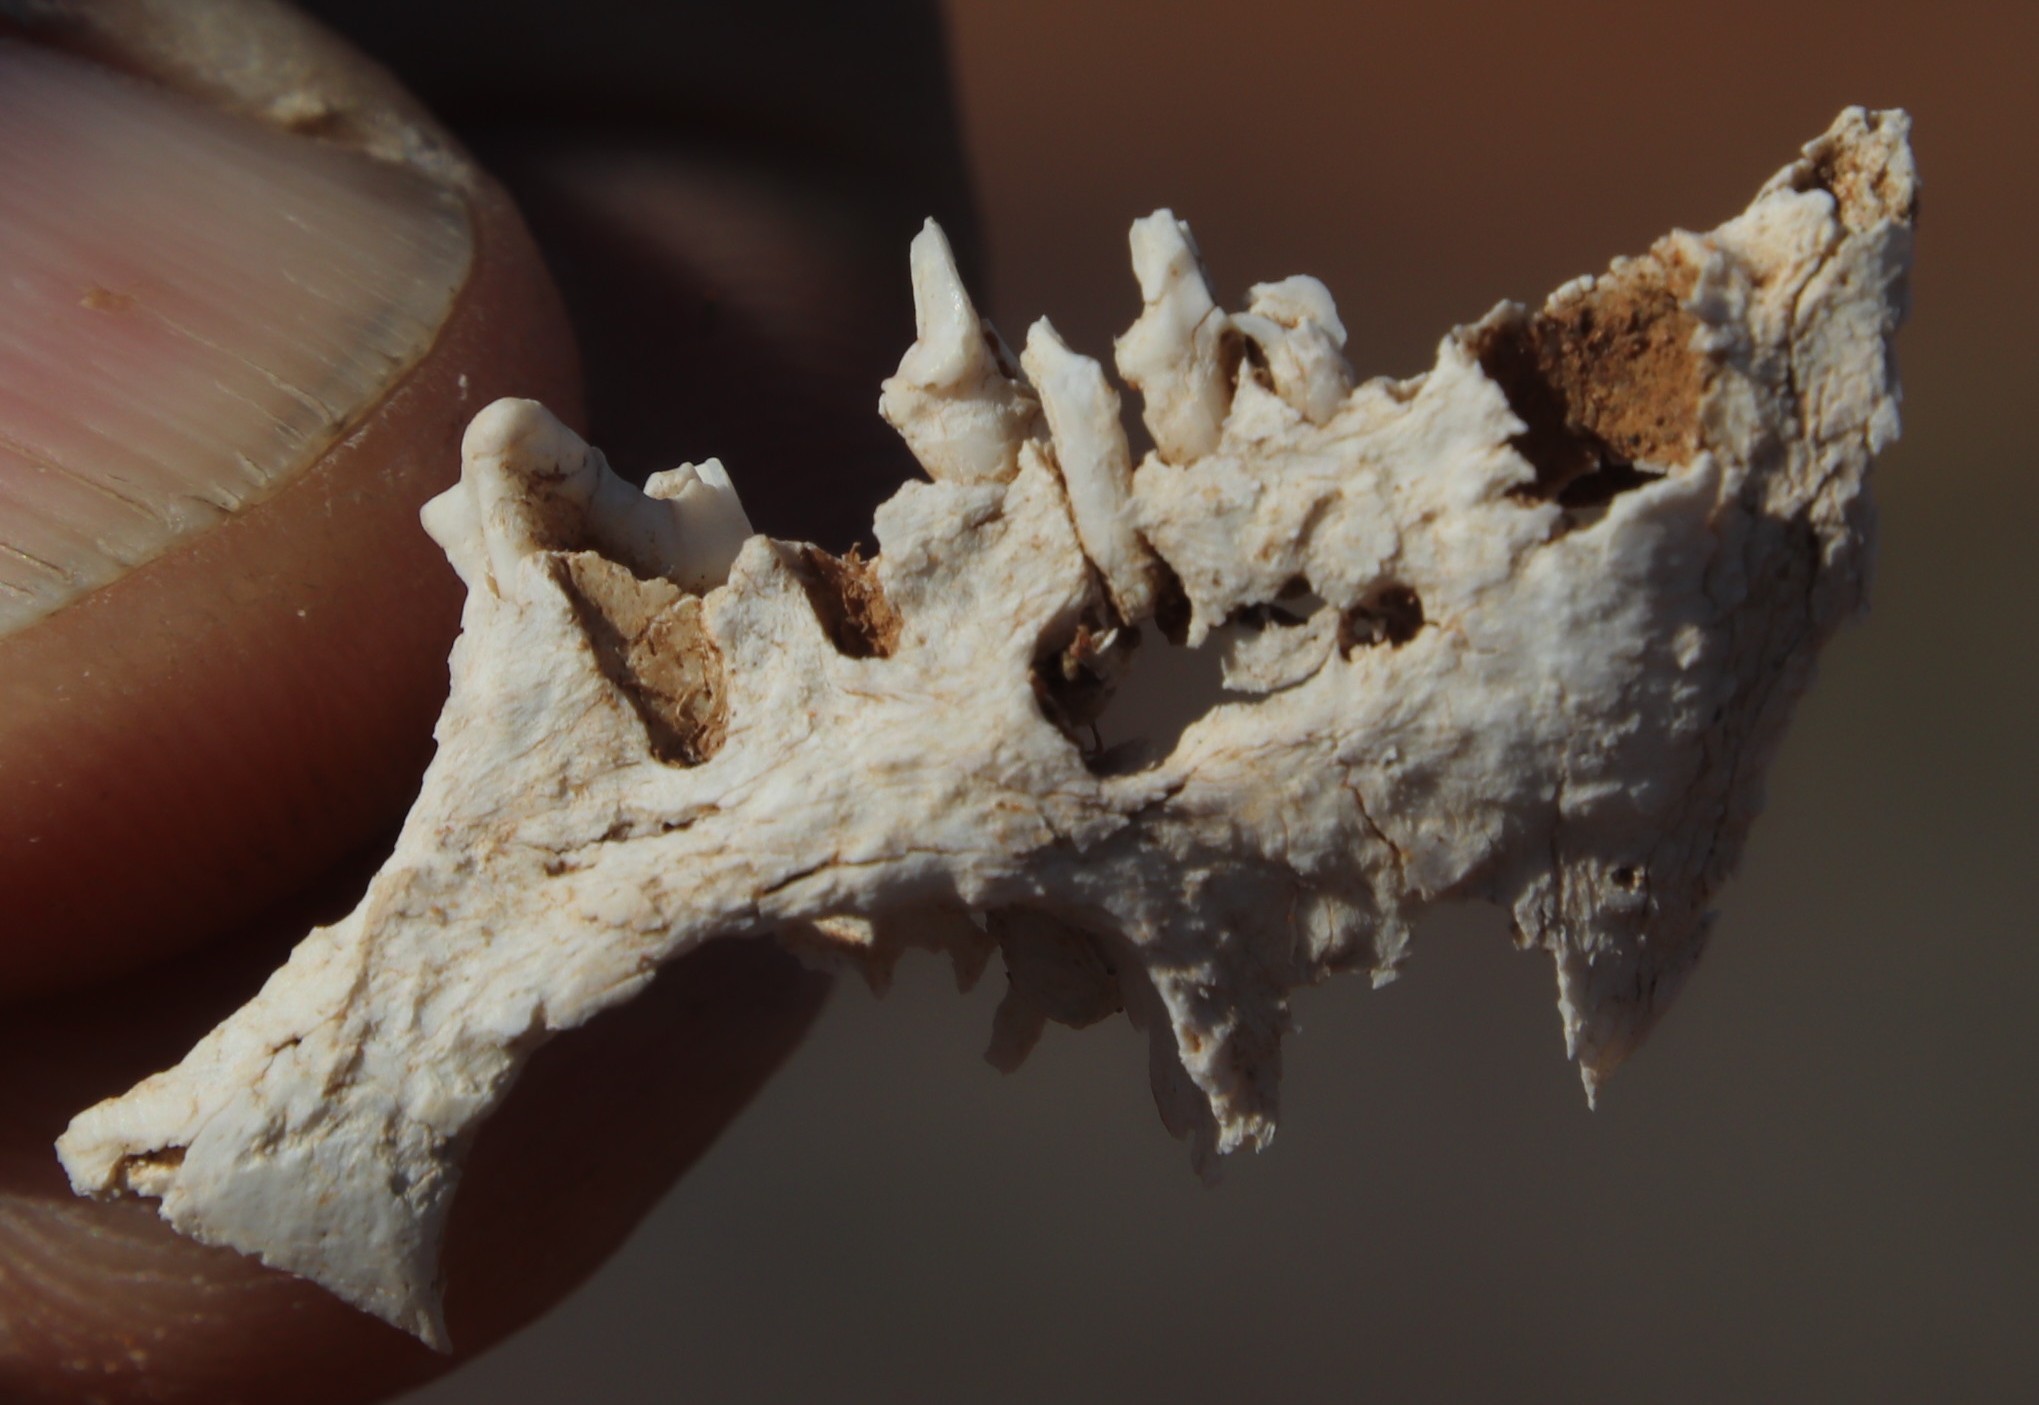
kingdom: Animalia
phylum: Chordata
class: Mammalia
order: Carnivora
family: Canidae
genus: Otocyon
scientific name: Otocyon megalotis
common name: Bat-eared fox
